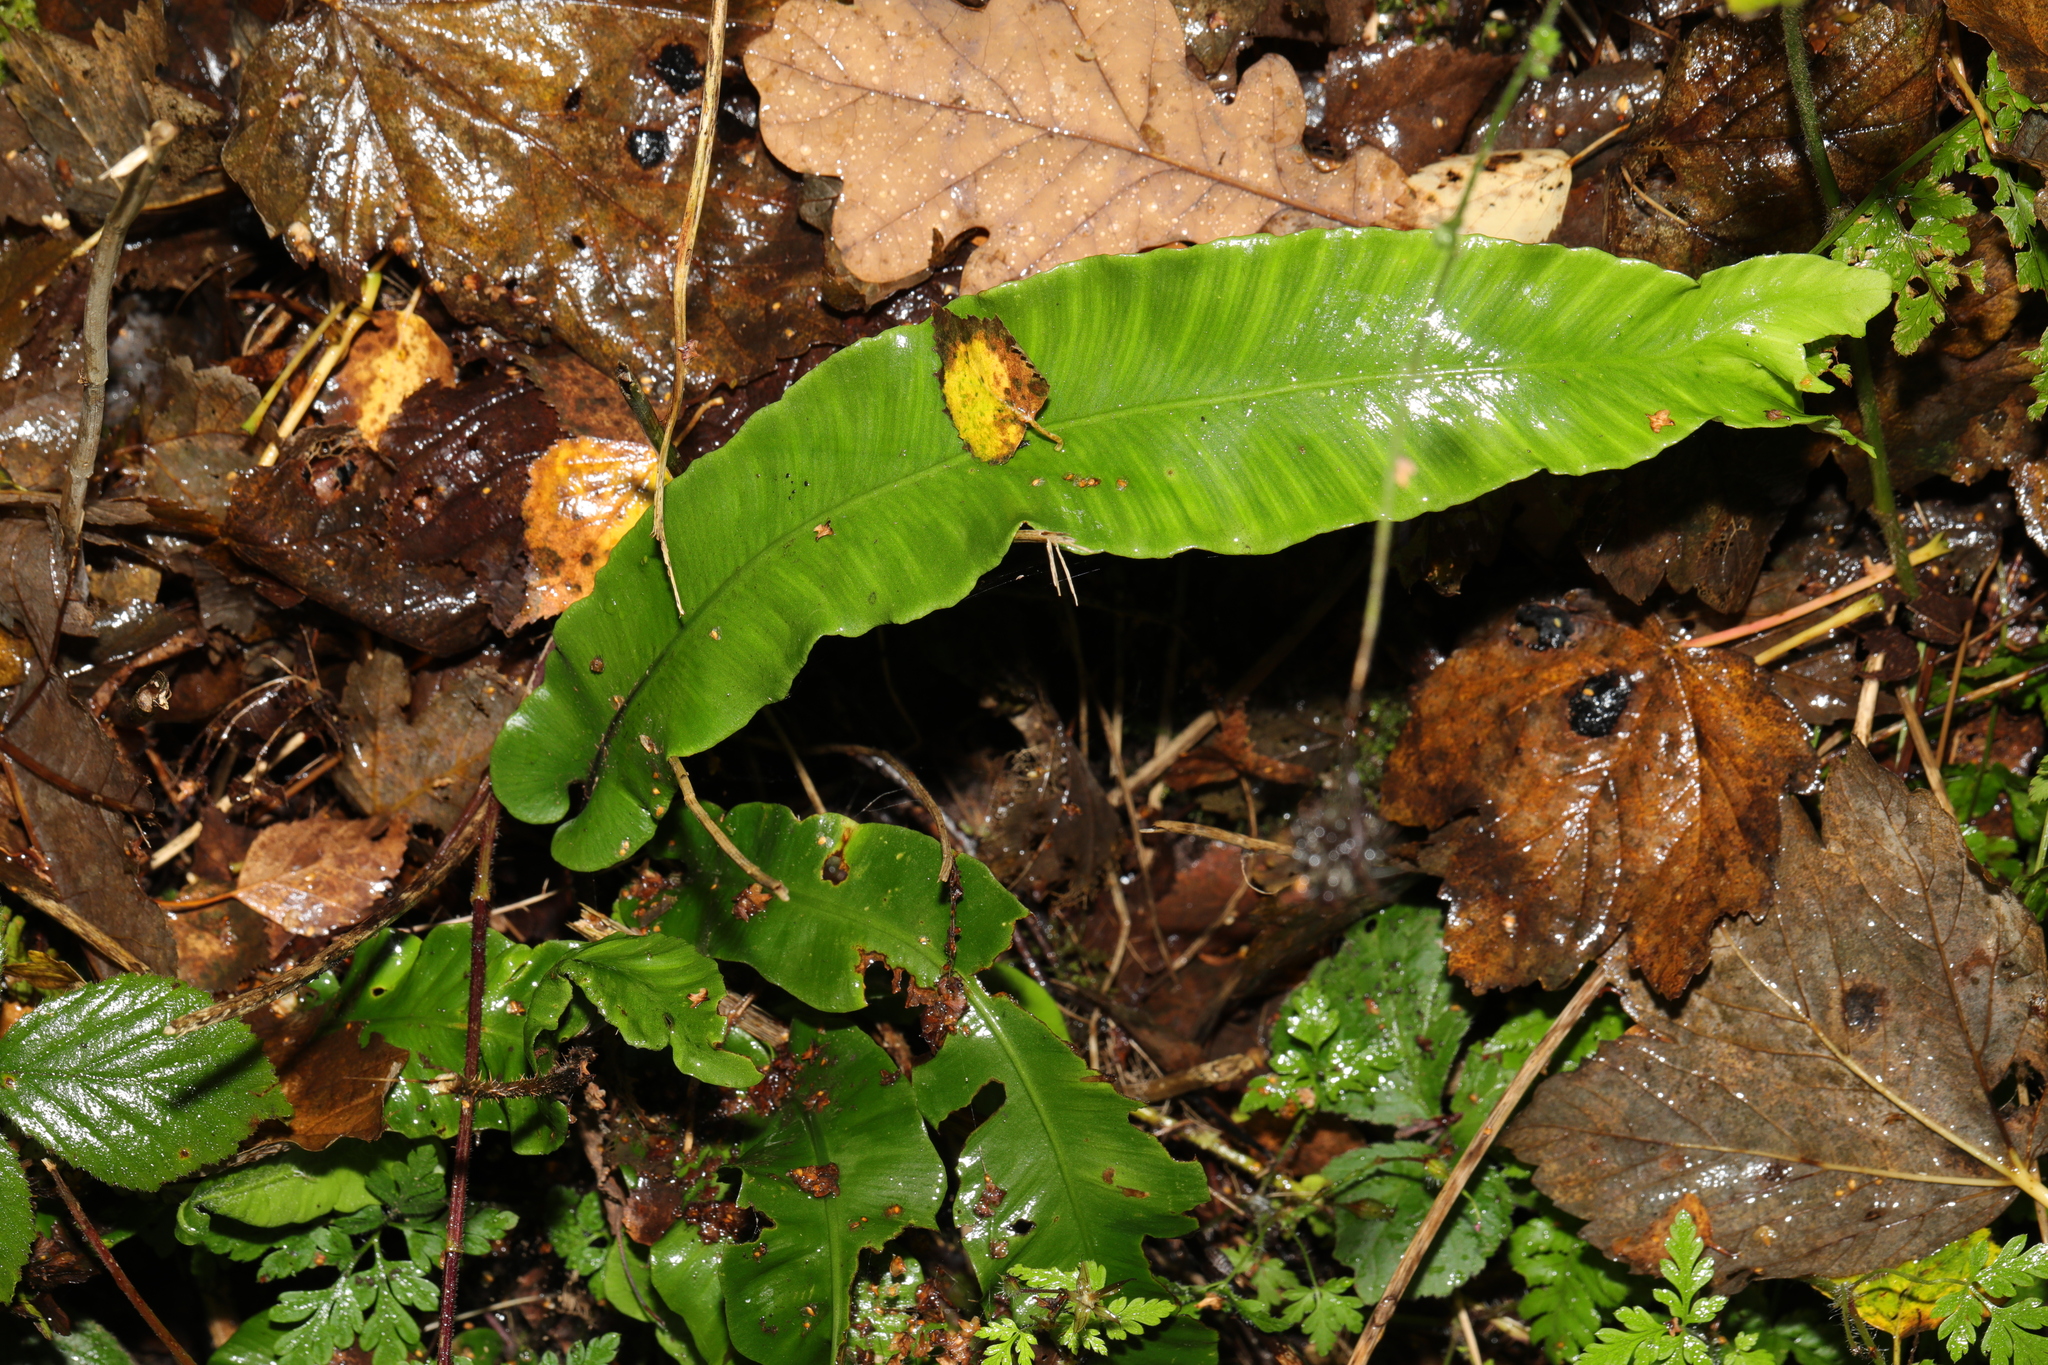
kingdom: Plantae
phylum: Tracheophyta
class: Polypodiopsida
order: Polypodiales
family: Aspleniaceae
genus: Asplenium
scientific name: Asplenium scolopendrium
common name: Hart's-tongue fern
